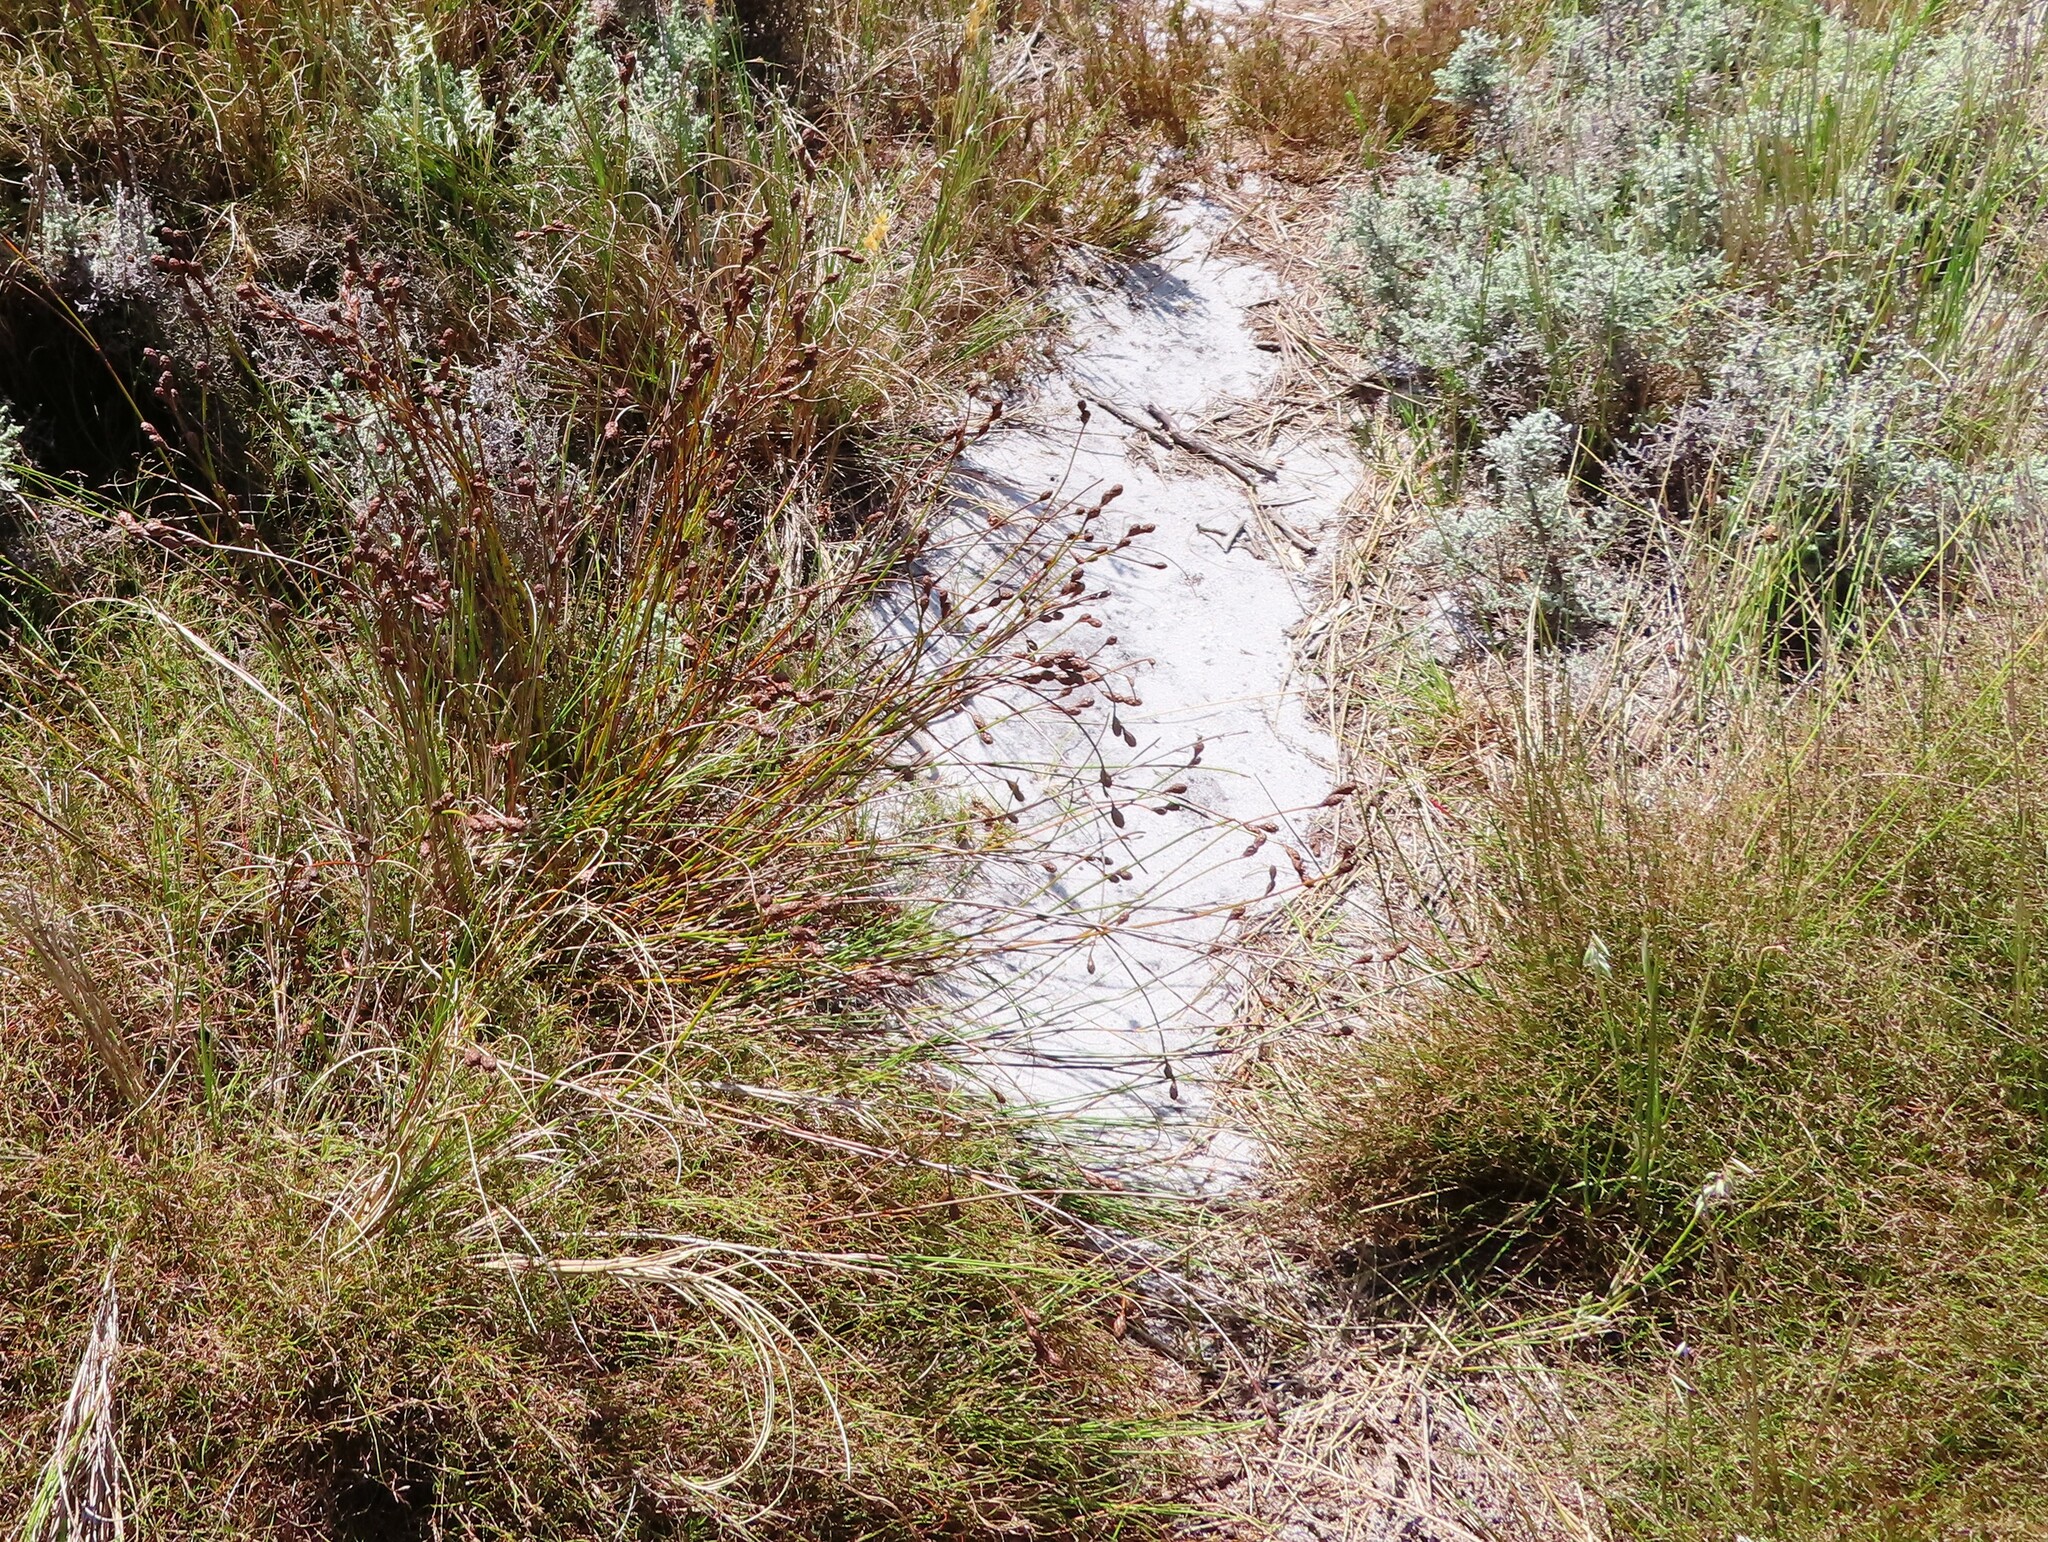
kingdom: Plantae
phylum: Tracheophyta
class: Liliopsida
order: Poales
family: Restionaceae
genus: Restio
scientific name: Restio bifurcus
